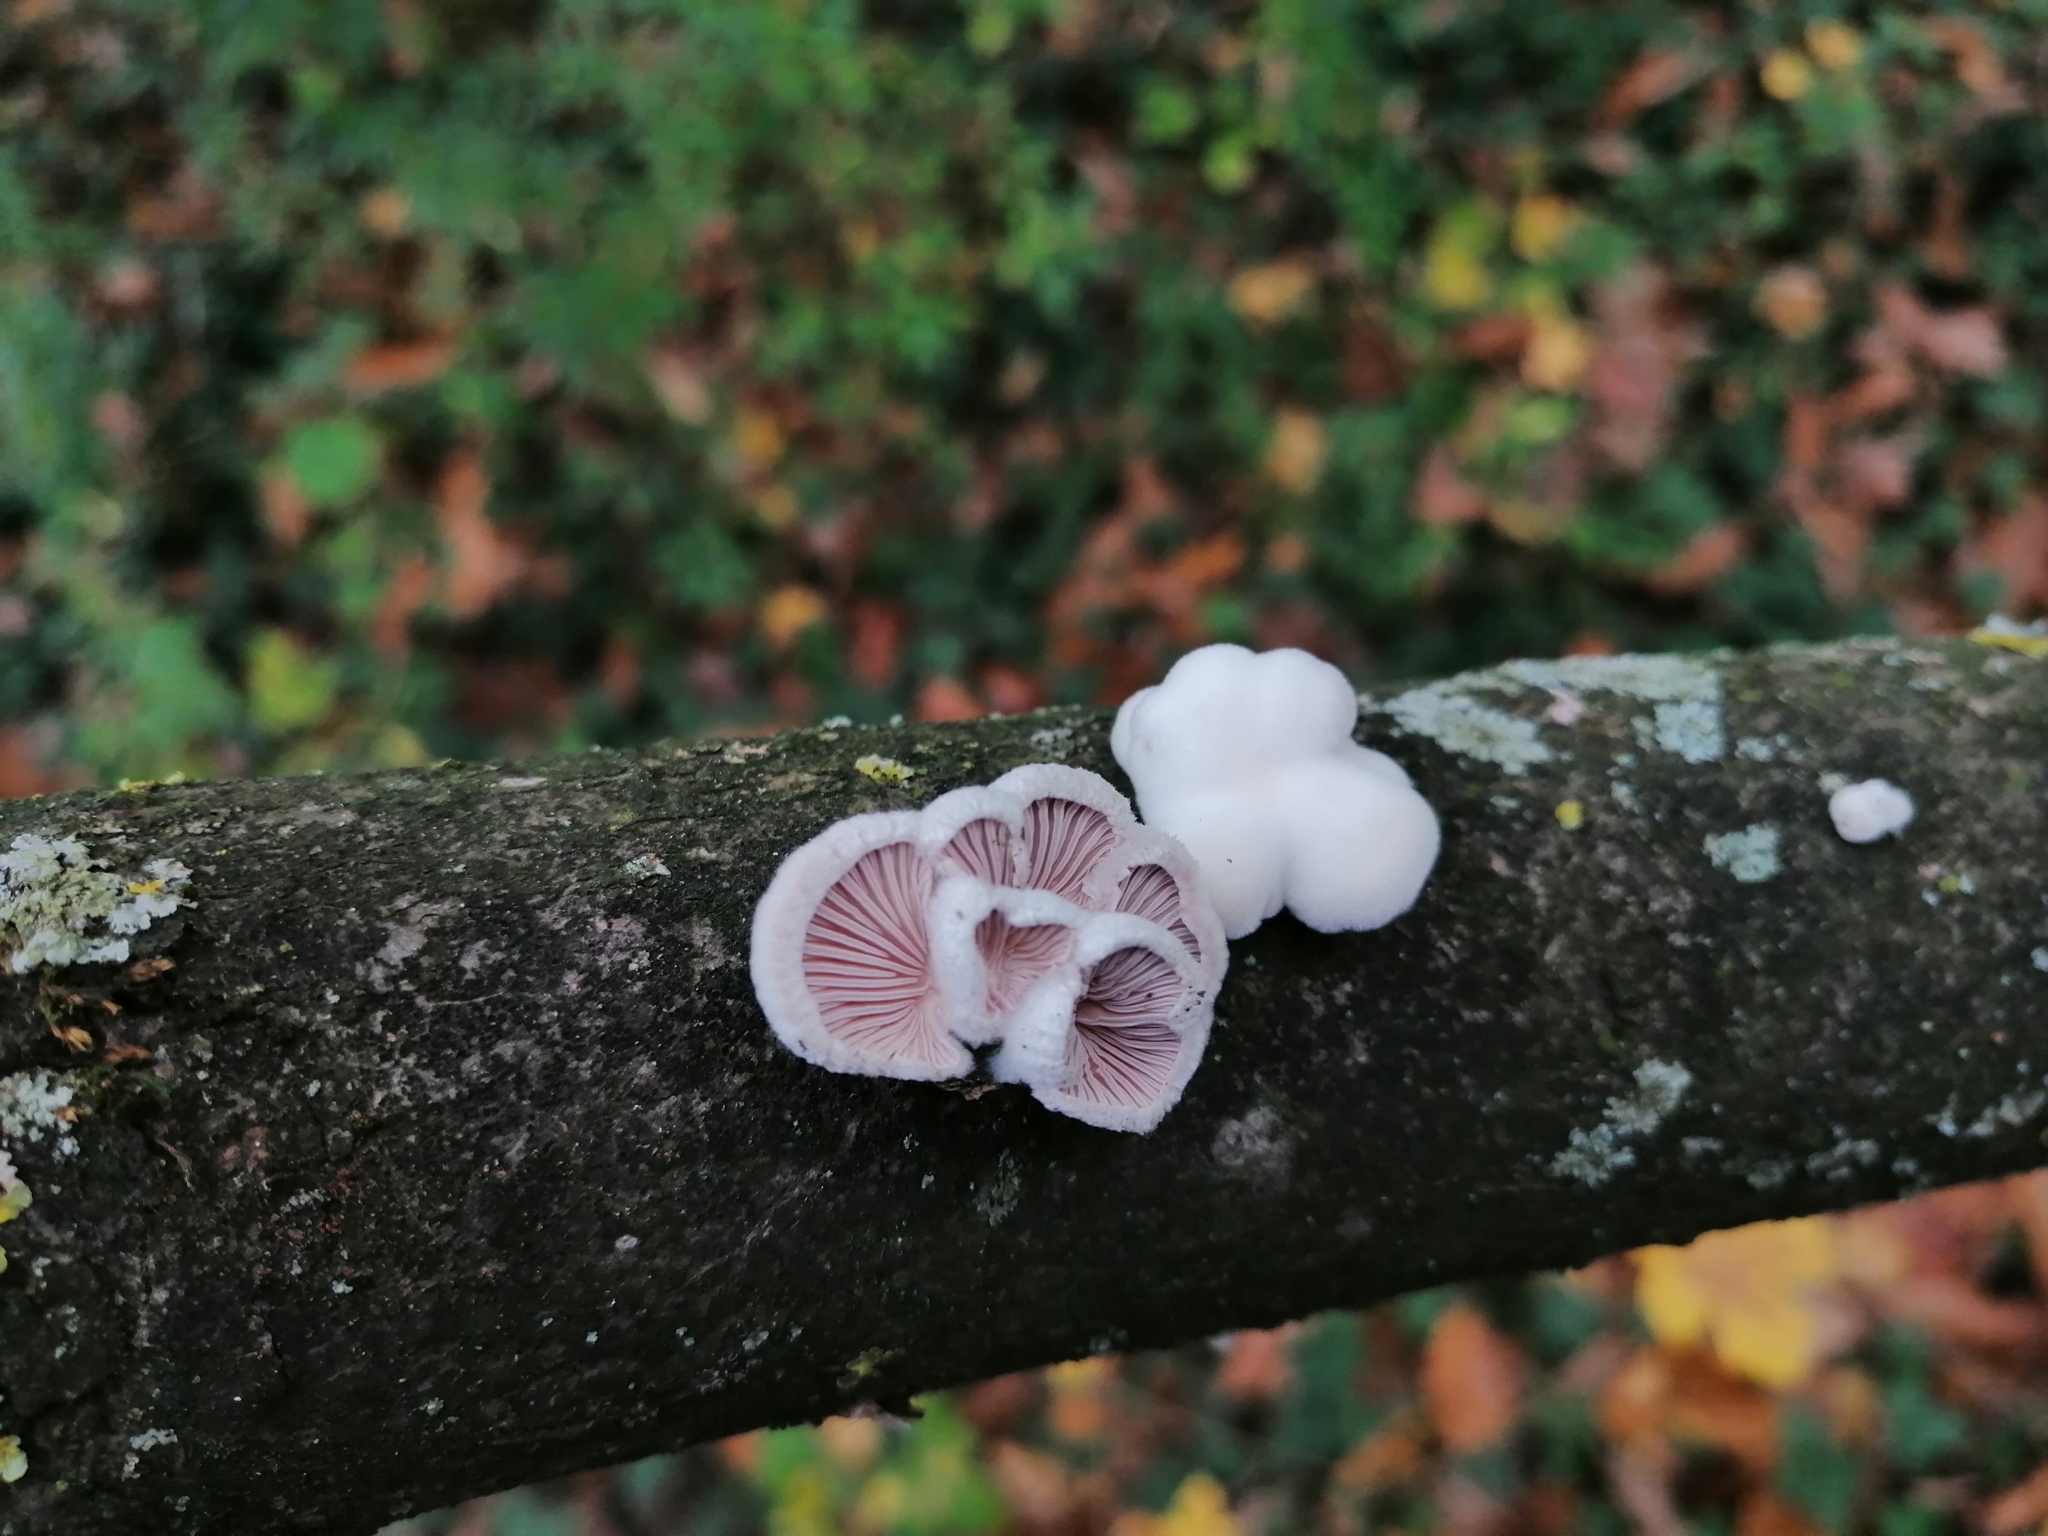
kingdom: Fungi
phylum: Basidiomycota
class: Agaricomycetes
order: Agaricales
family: Schizophyllaceae
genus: Schizophyllum
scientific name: Schizophyllum commune
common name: Common porecrust
